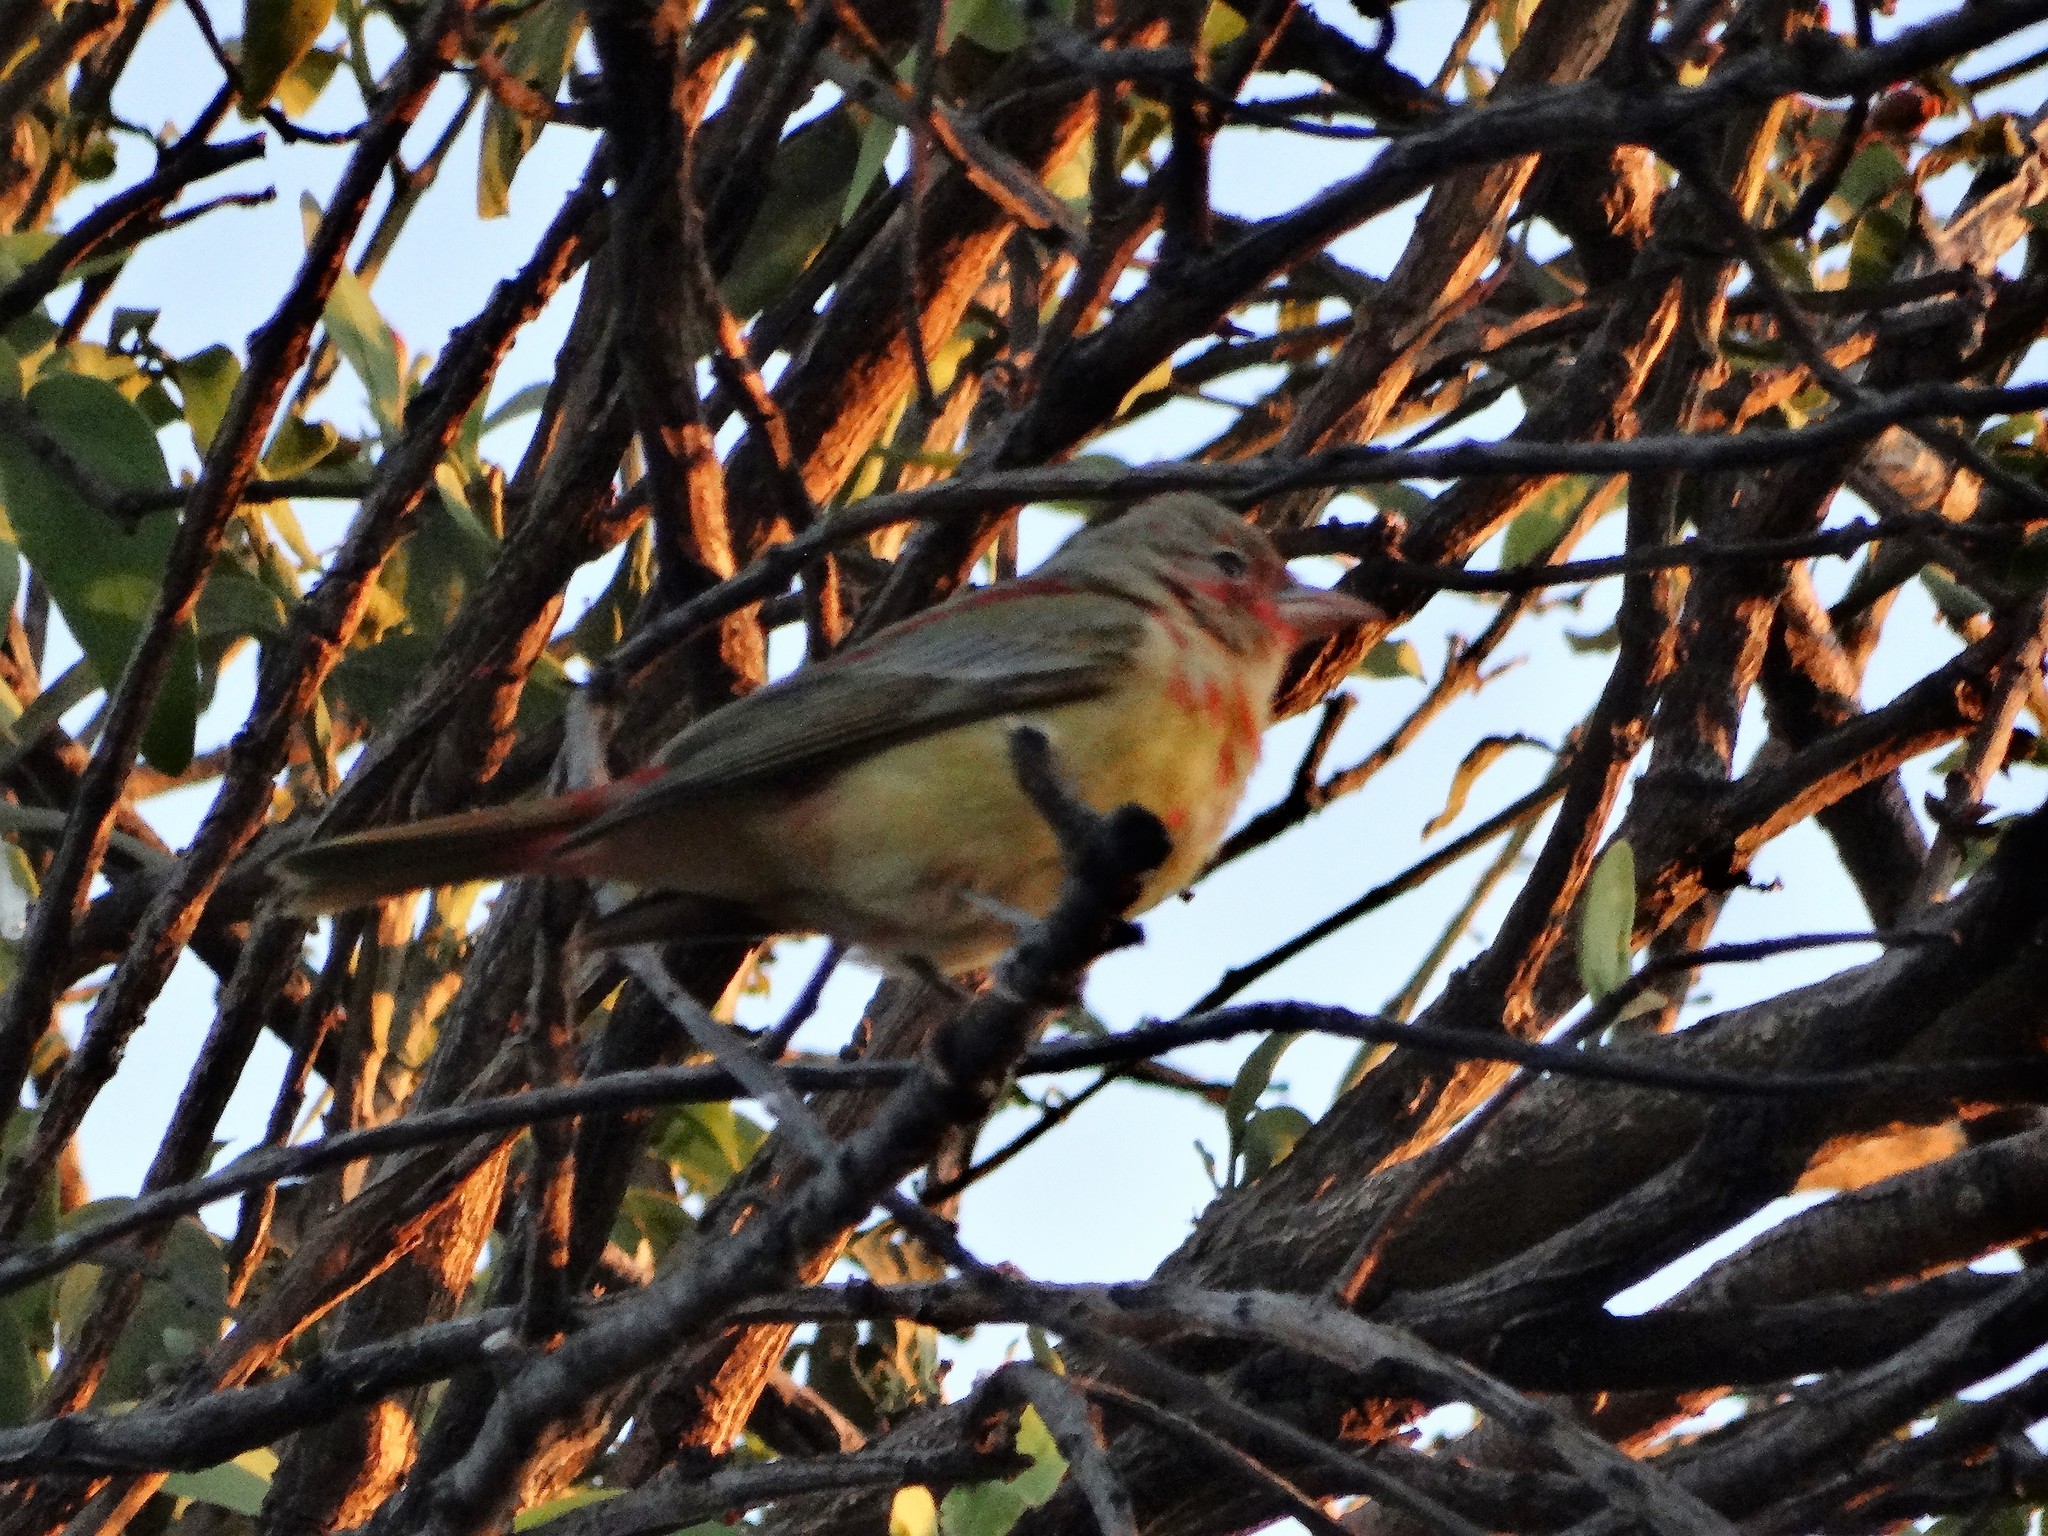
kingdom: Animalia
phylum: Chordata
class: Aves
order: Passeriformes
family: Cardinalidae
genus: Piranga
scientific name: Piranga rubra
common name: Summer tanager
